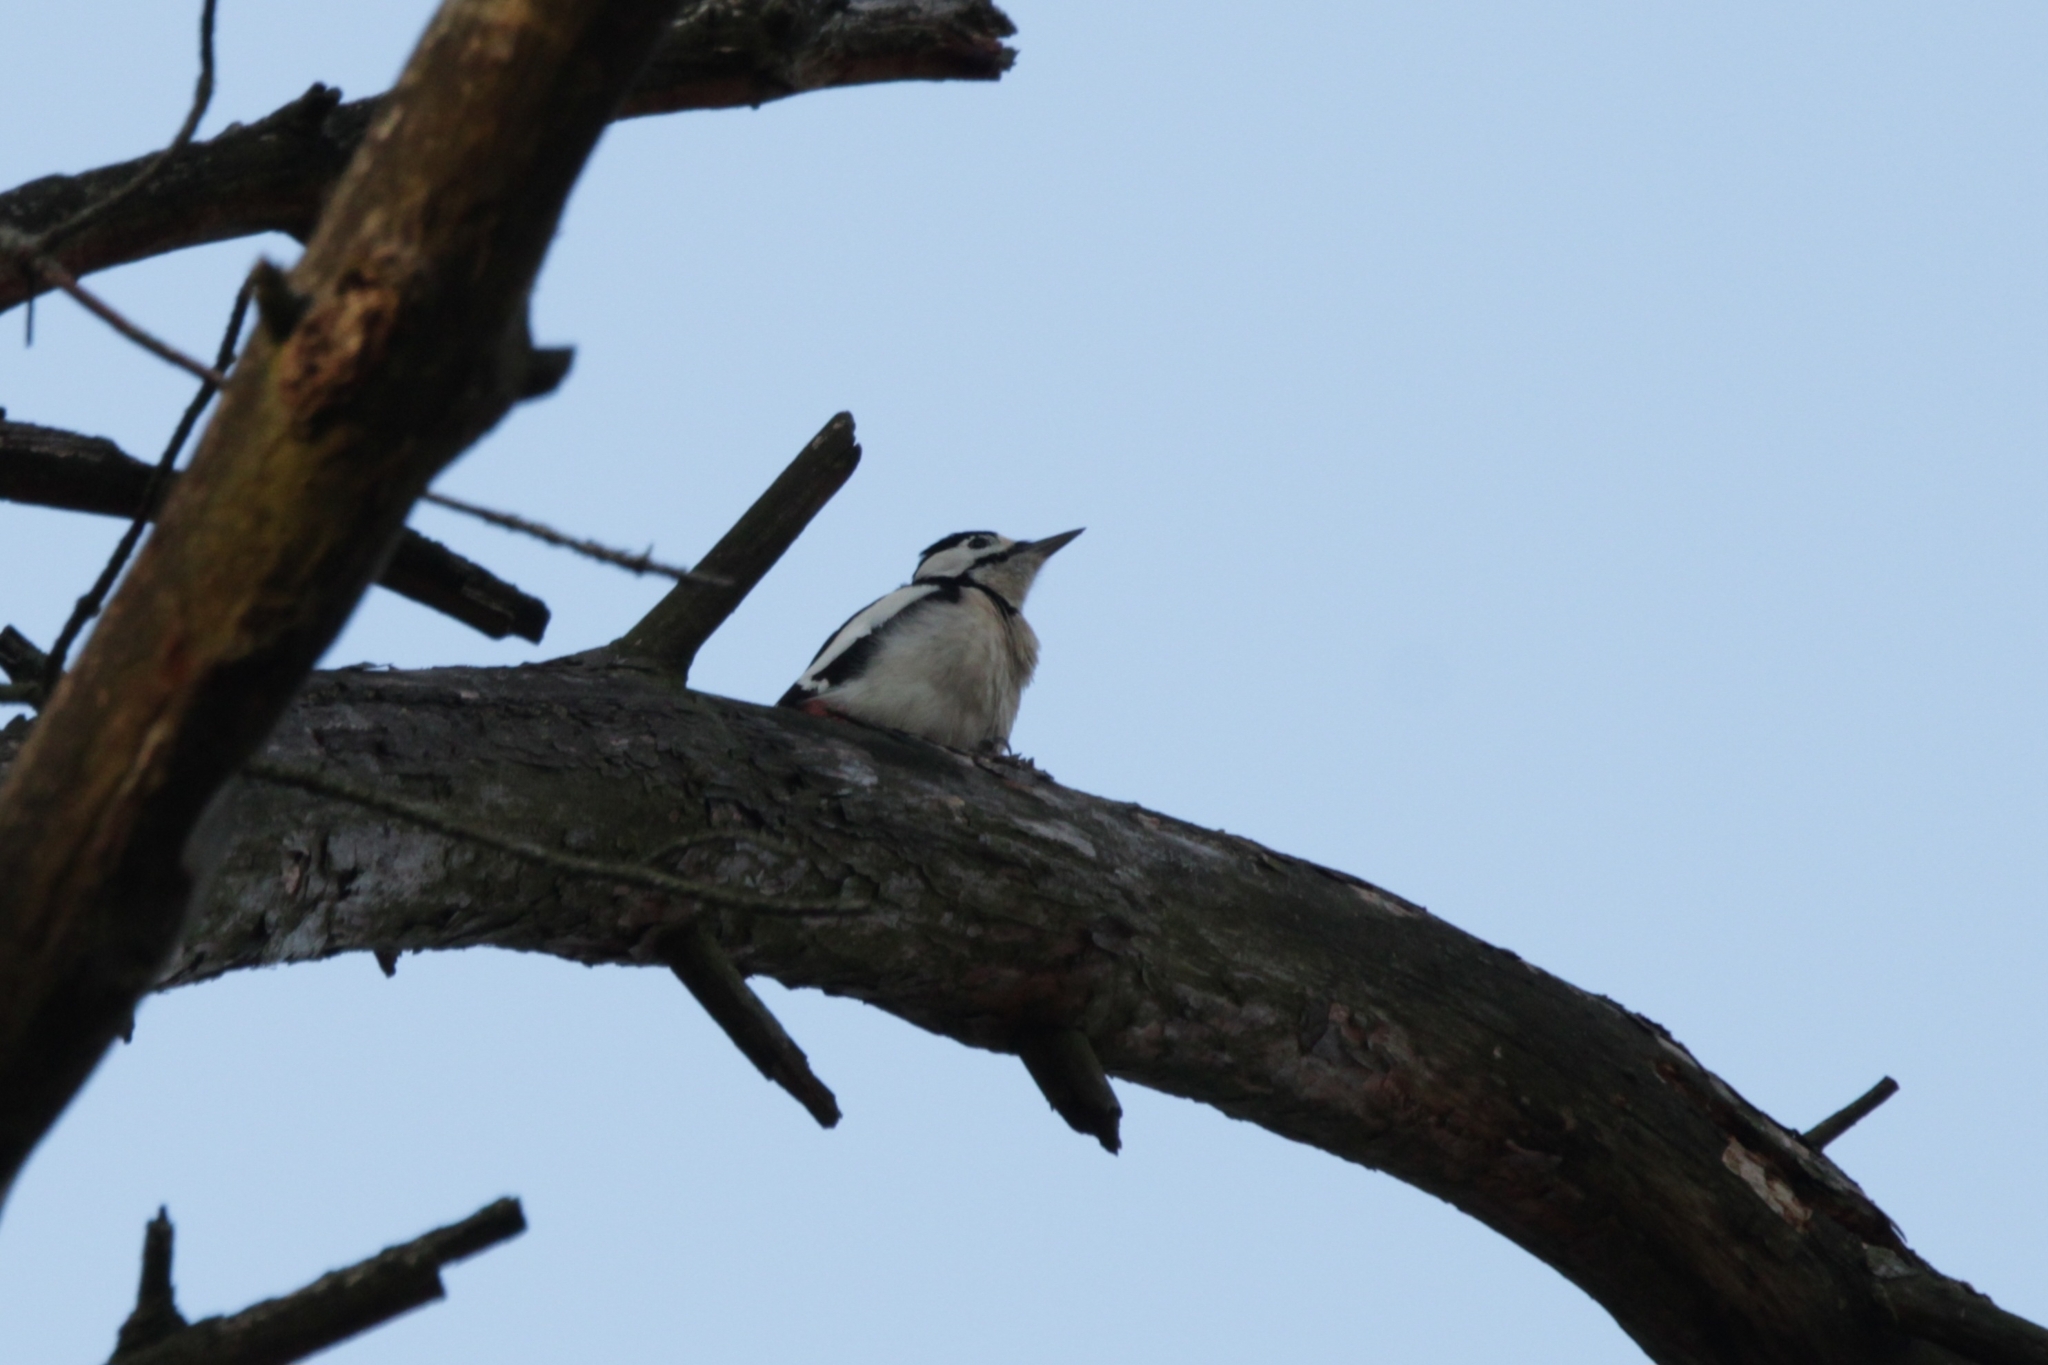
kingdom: Animalia
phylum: Chordata
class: Aves
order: Piciformes
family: Picidae
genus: Dendrocopos
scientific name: Dendrocopos major
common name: Great spotted woodpecker
